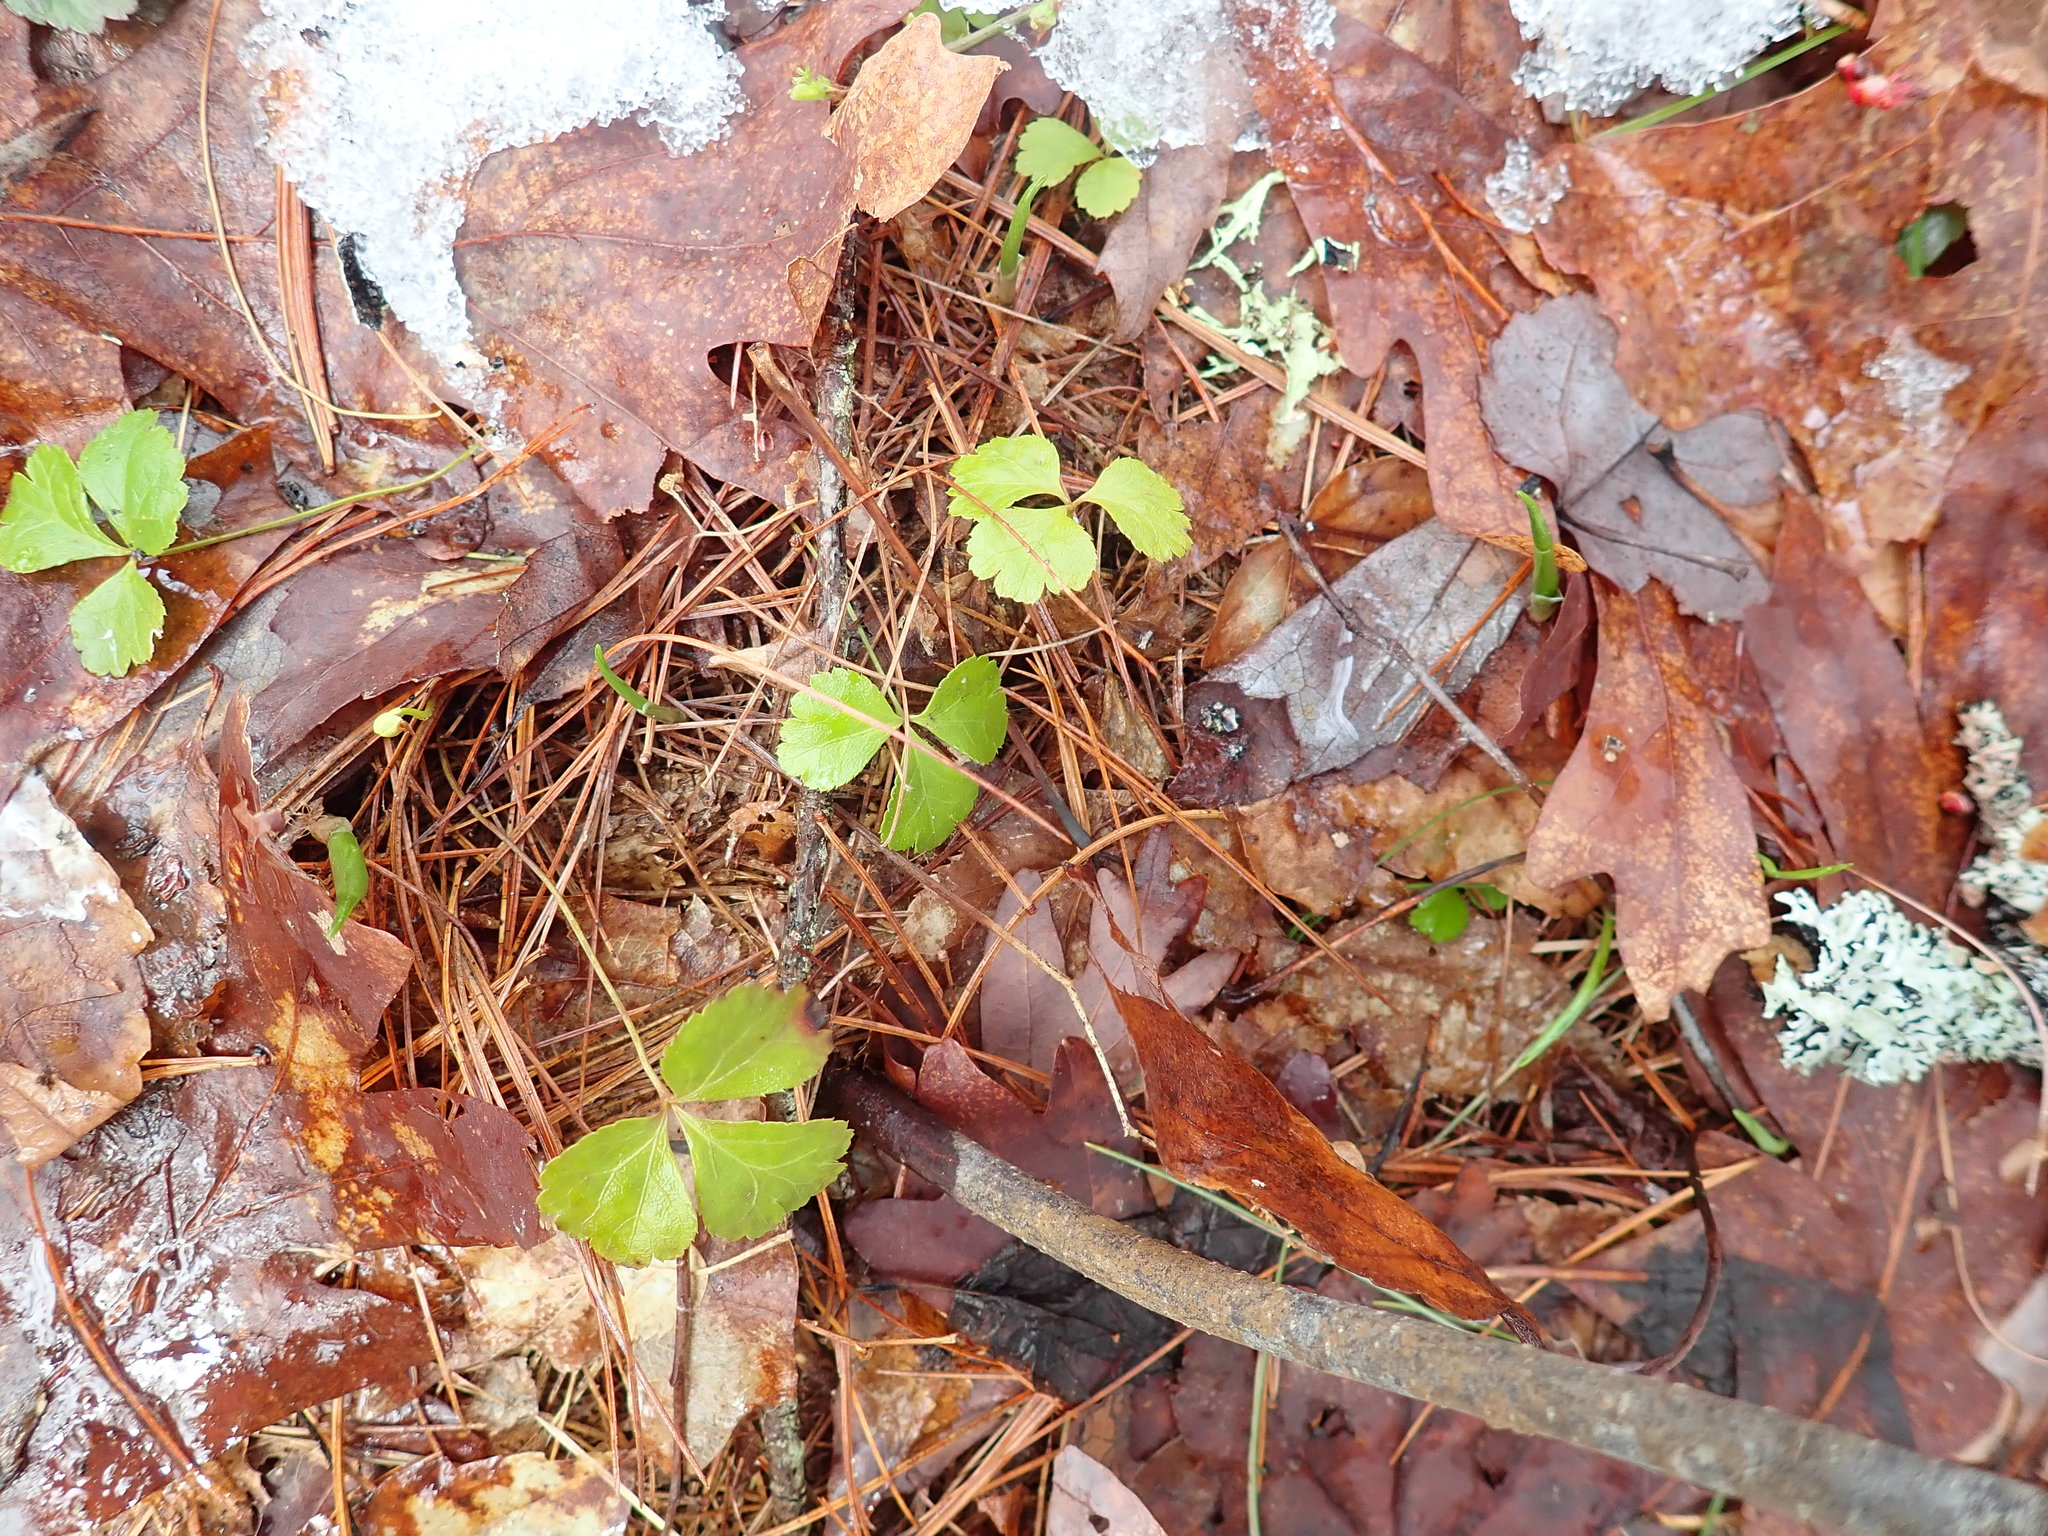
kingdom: Plantae
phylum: Tracheophyta
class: Magnoliopsida
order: Ranunculales
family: Ranunculaceae
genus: Coptis
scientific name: Coptis trifolia
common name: Canker-root
